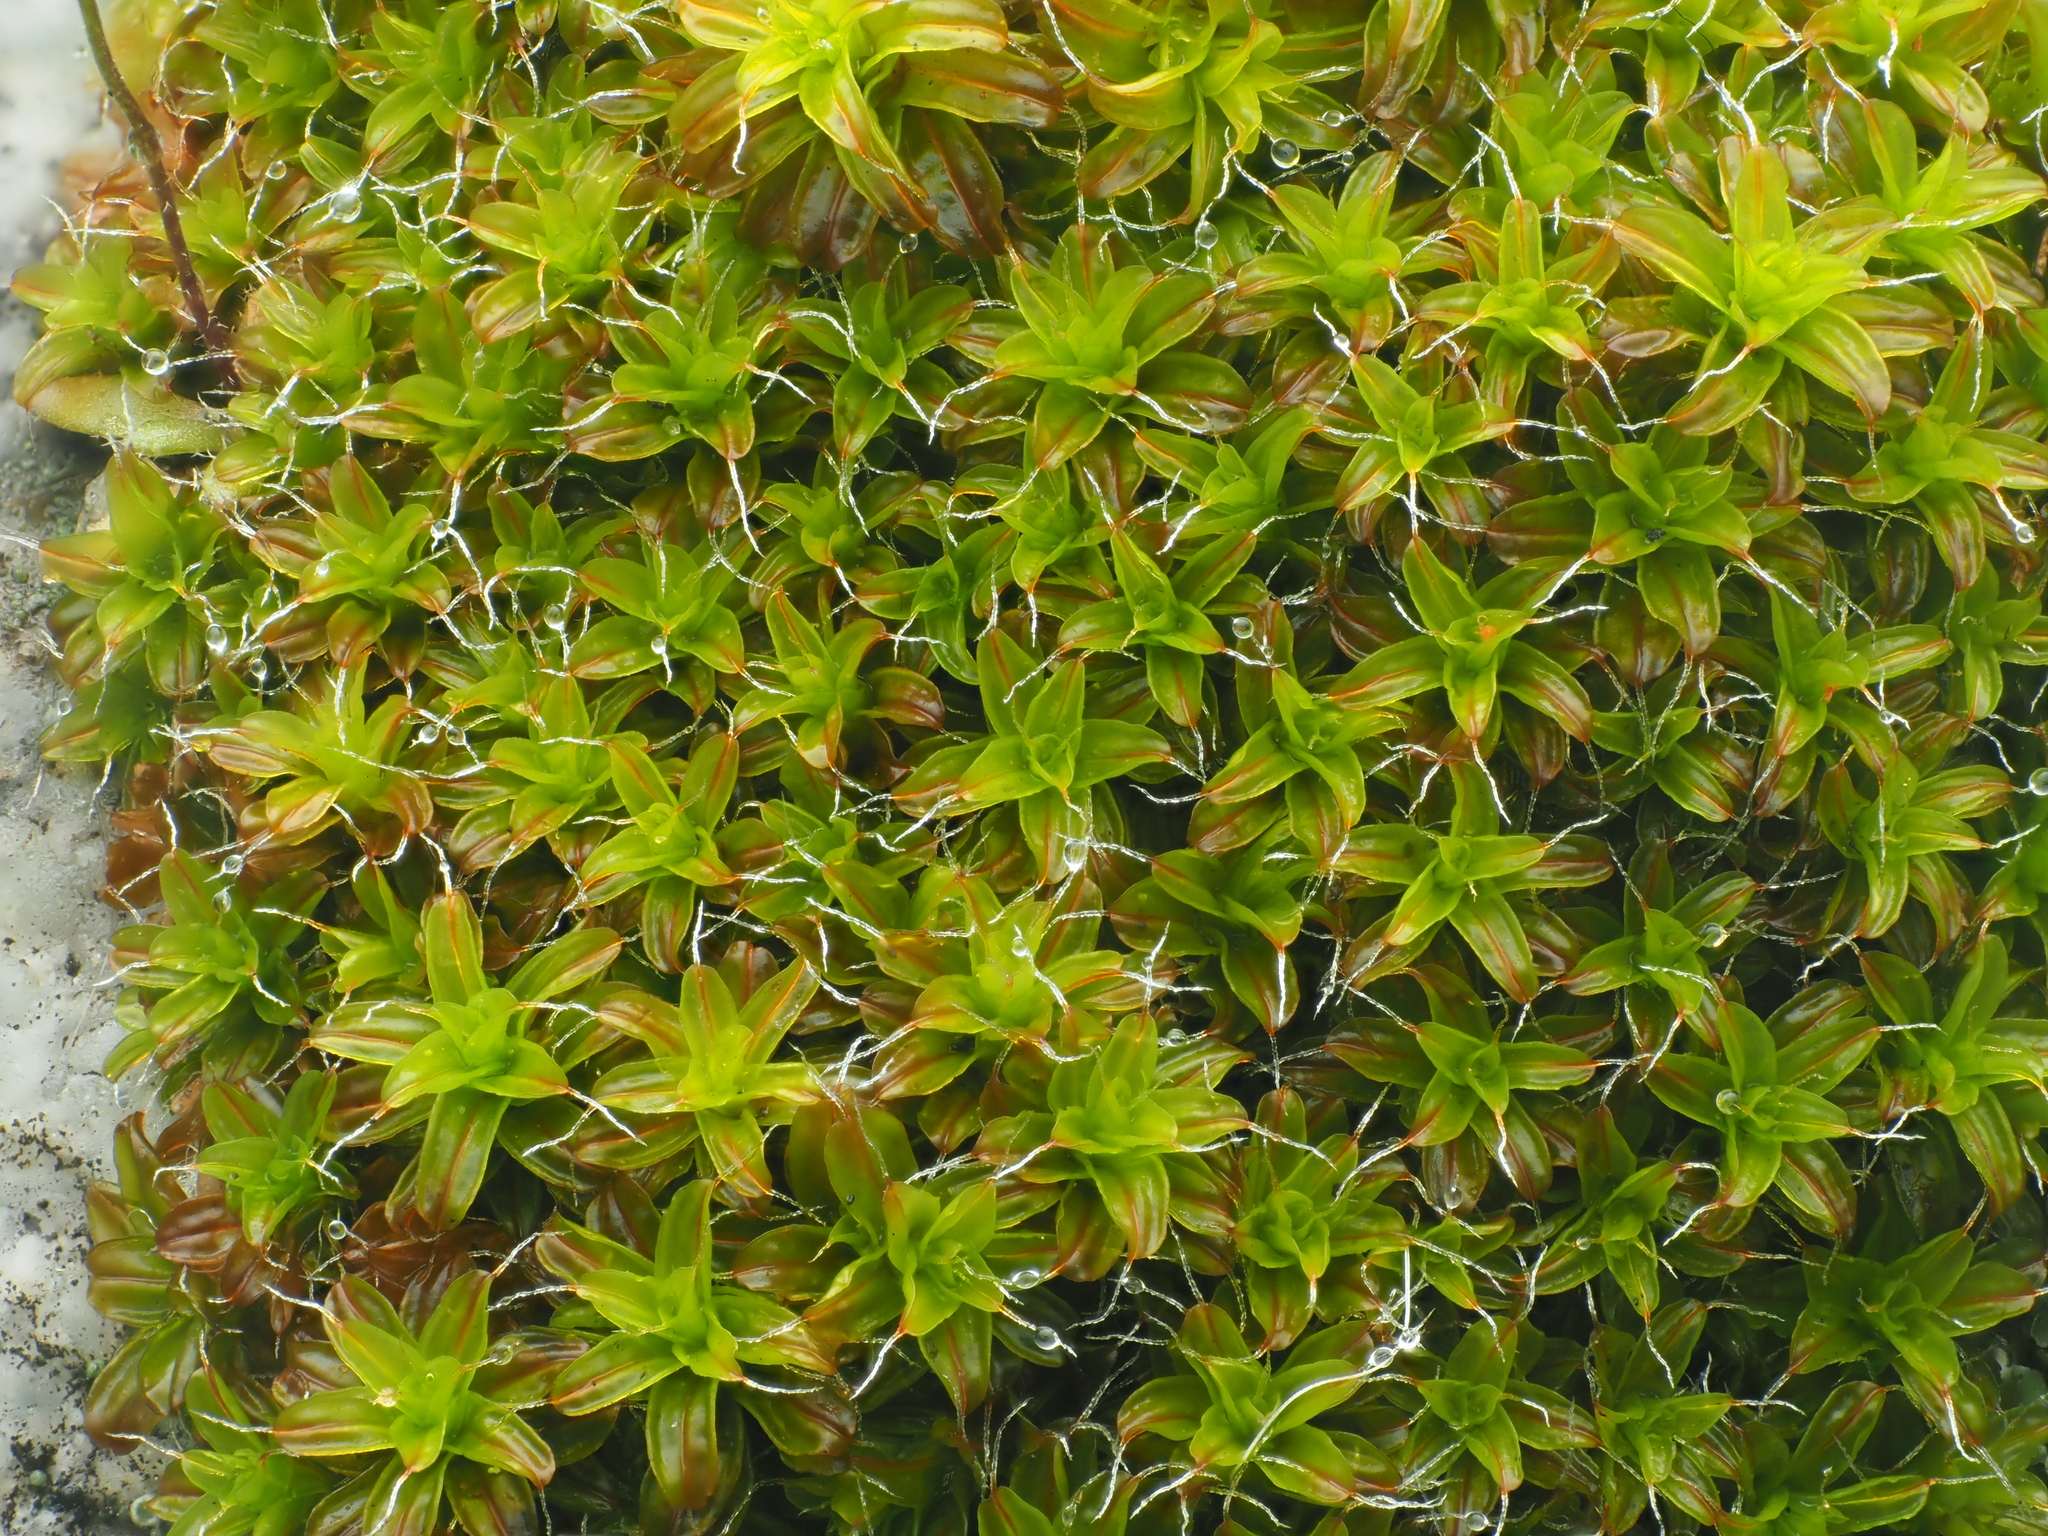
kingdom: Plantae
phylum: Bryophyta
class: Bryopsida
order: Pottiales
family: Pottiaceae
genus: Syntrichia
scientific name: Syntrichia ruralis
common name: Sidewalk screw moss
